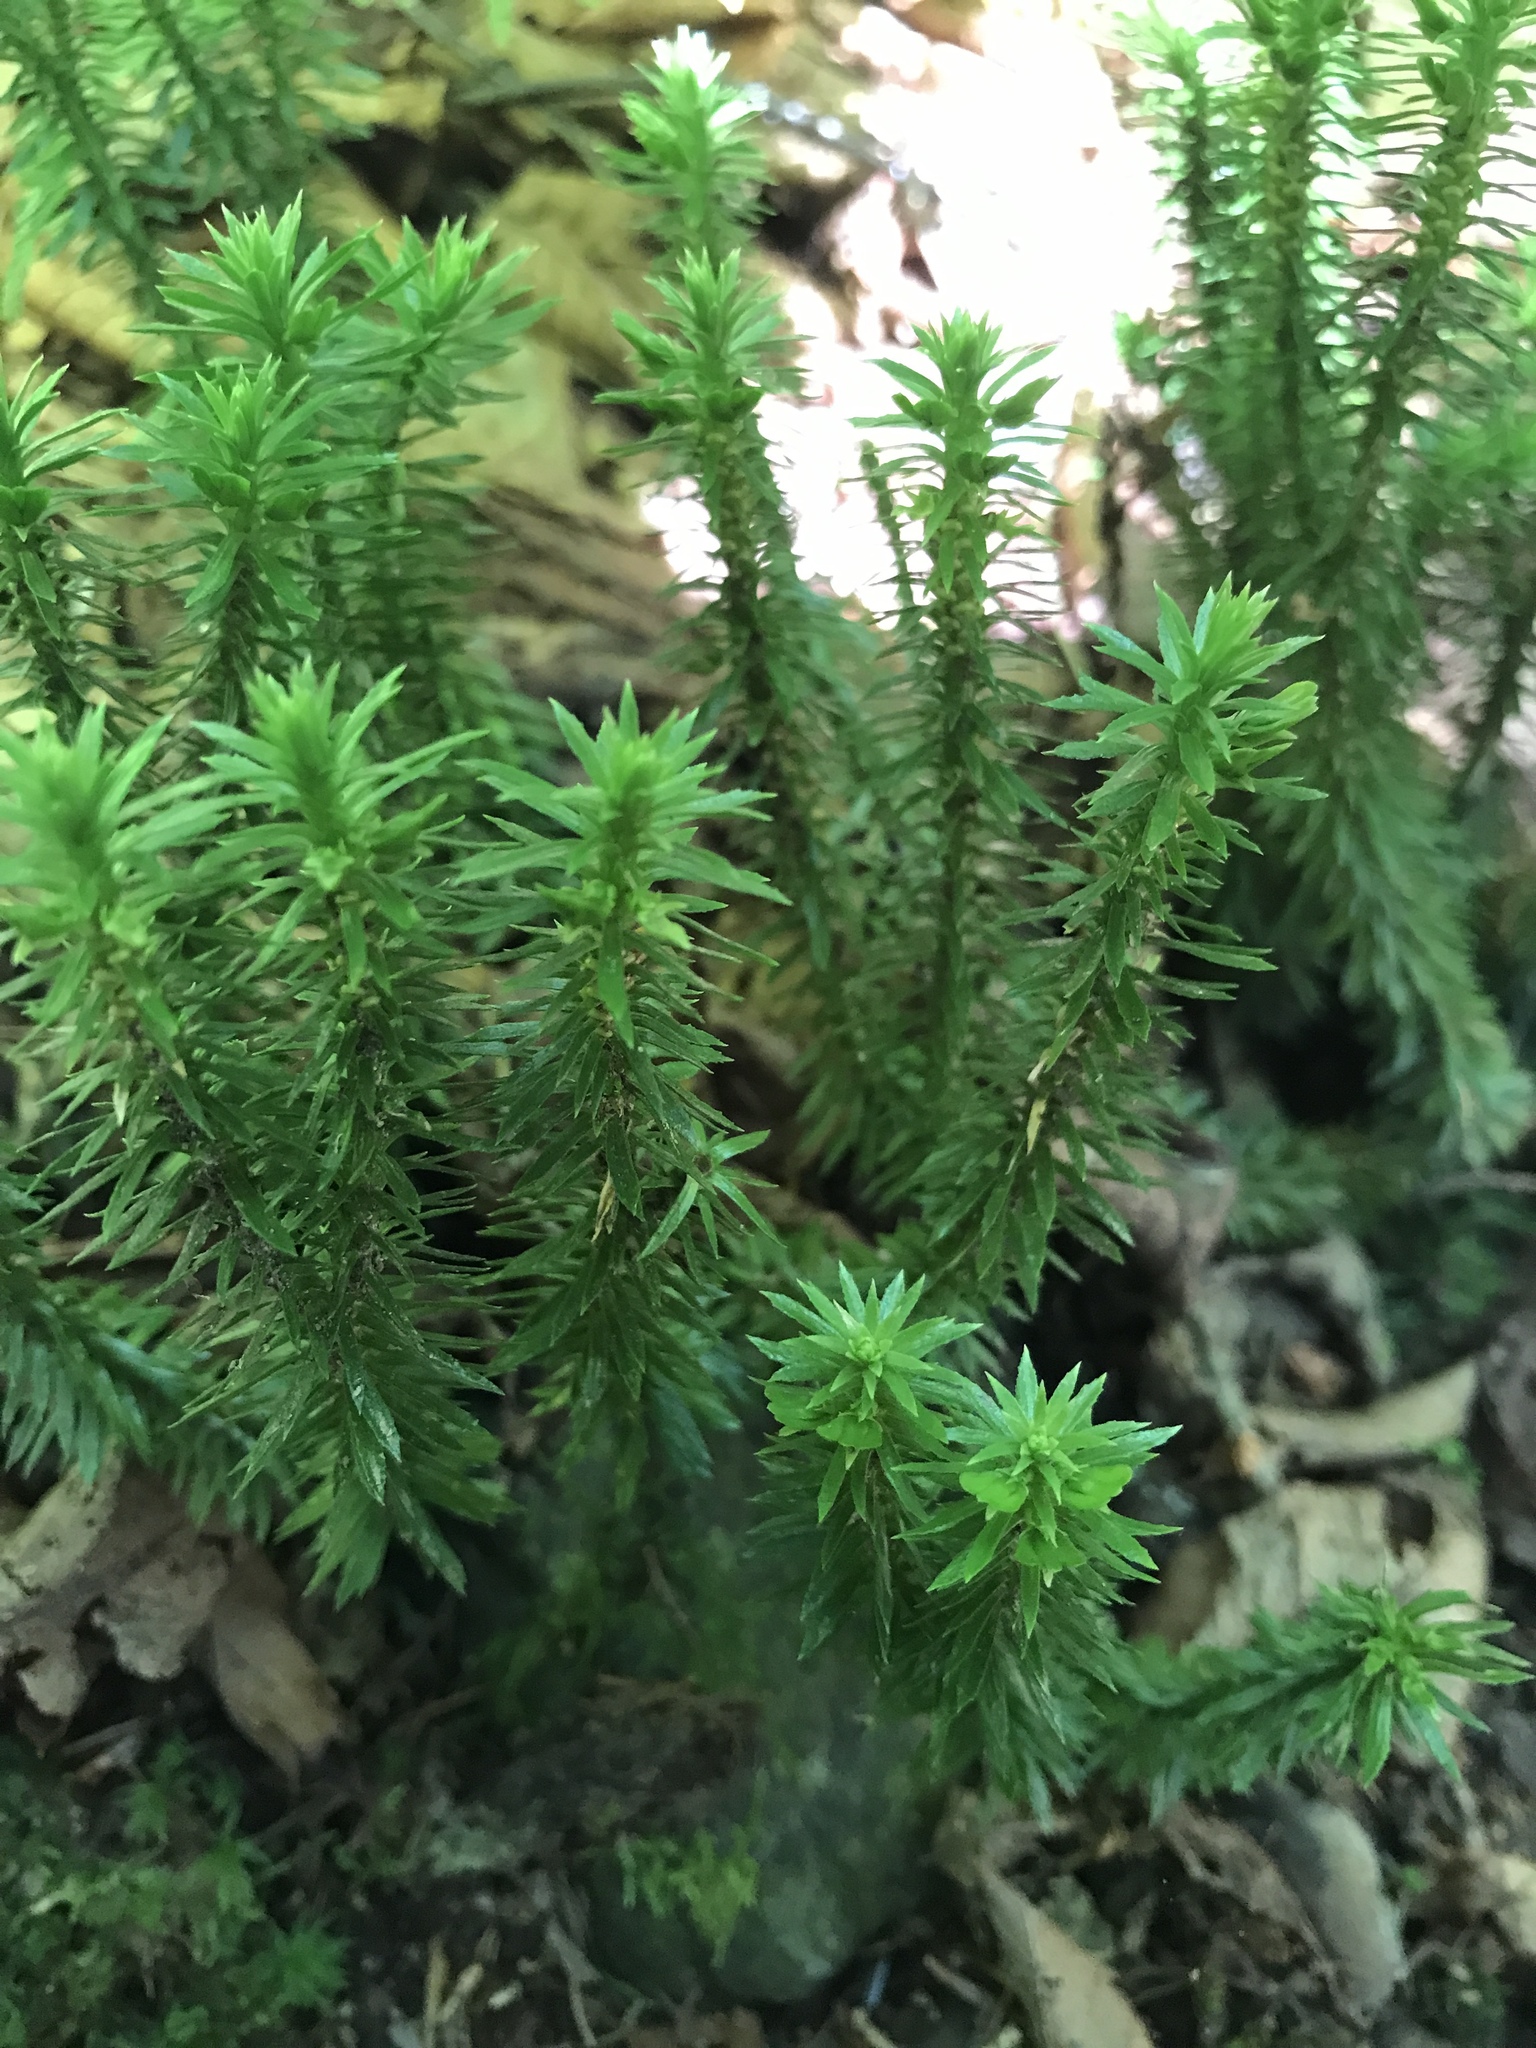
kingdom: Plantae
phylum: Tracheophyta
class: Lycopodiopsida
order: Lycopodiales
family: Lycopodiaceae
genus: Huperzia
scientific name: Huperzia lucidula
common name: Shining clubmoss
